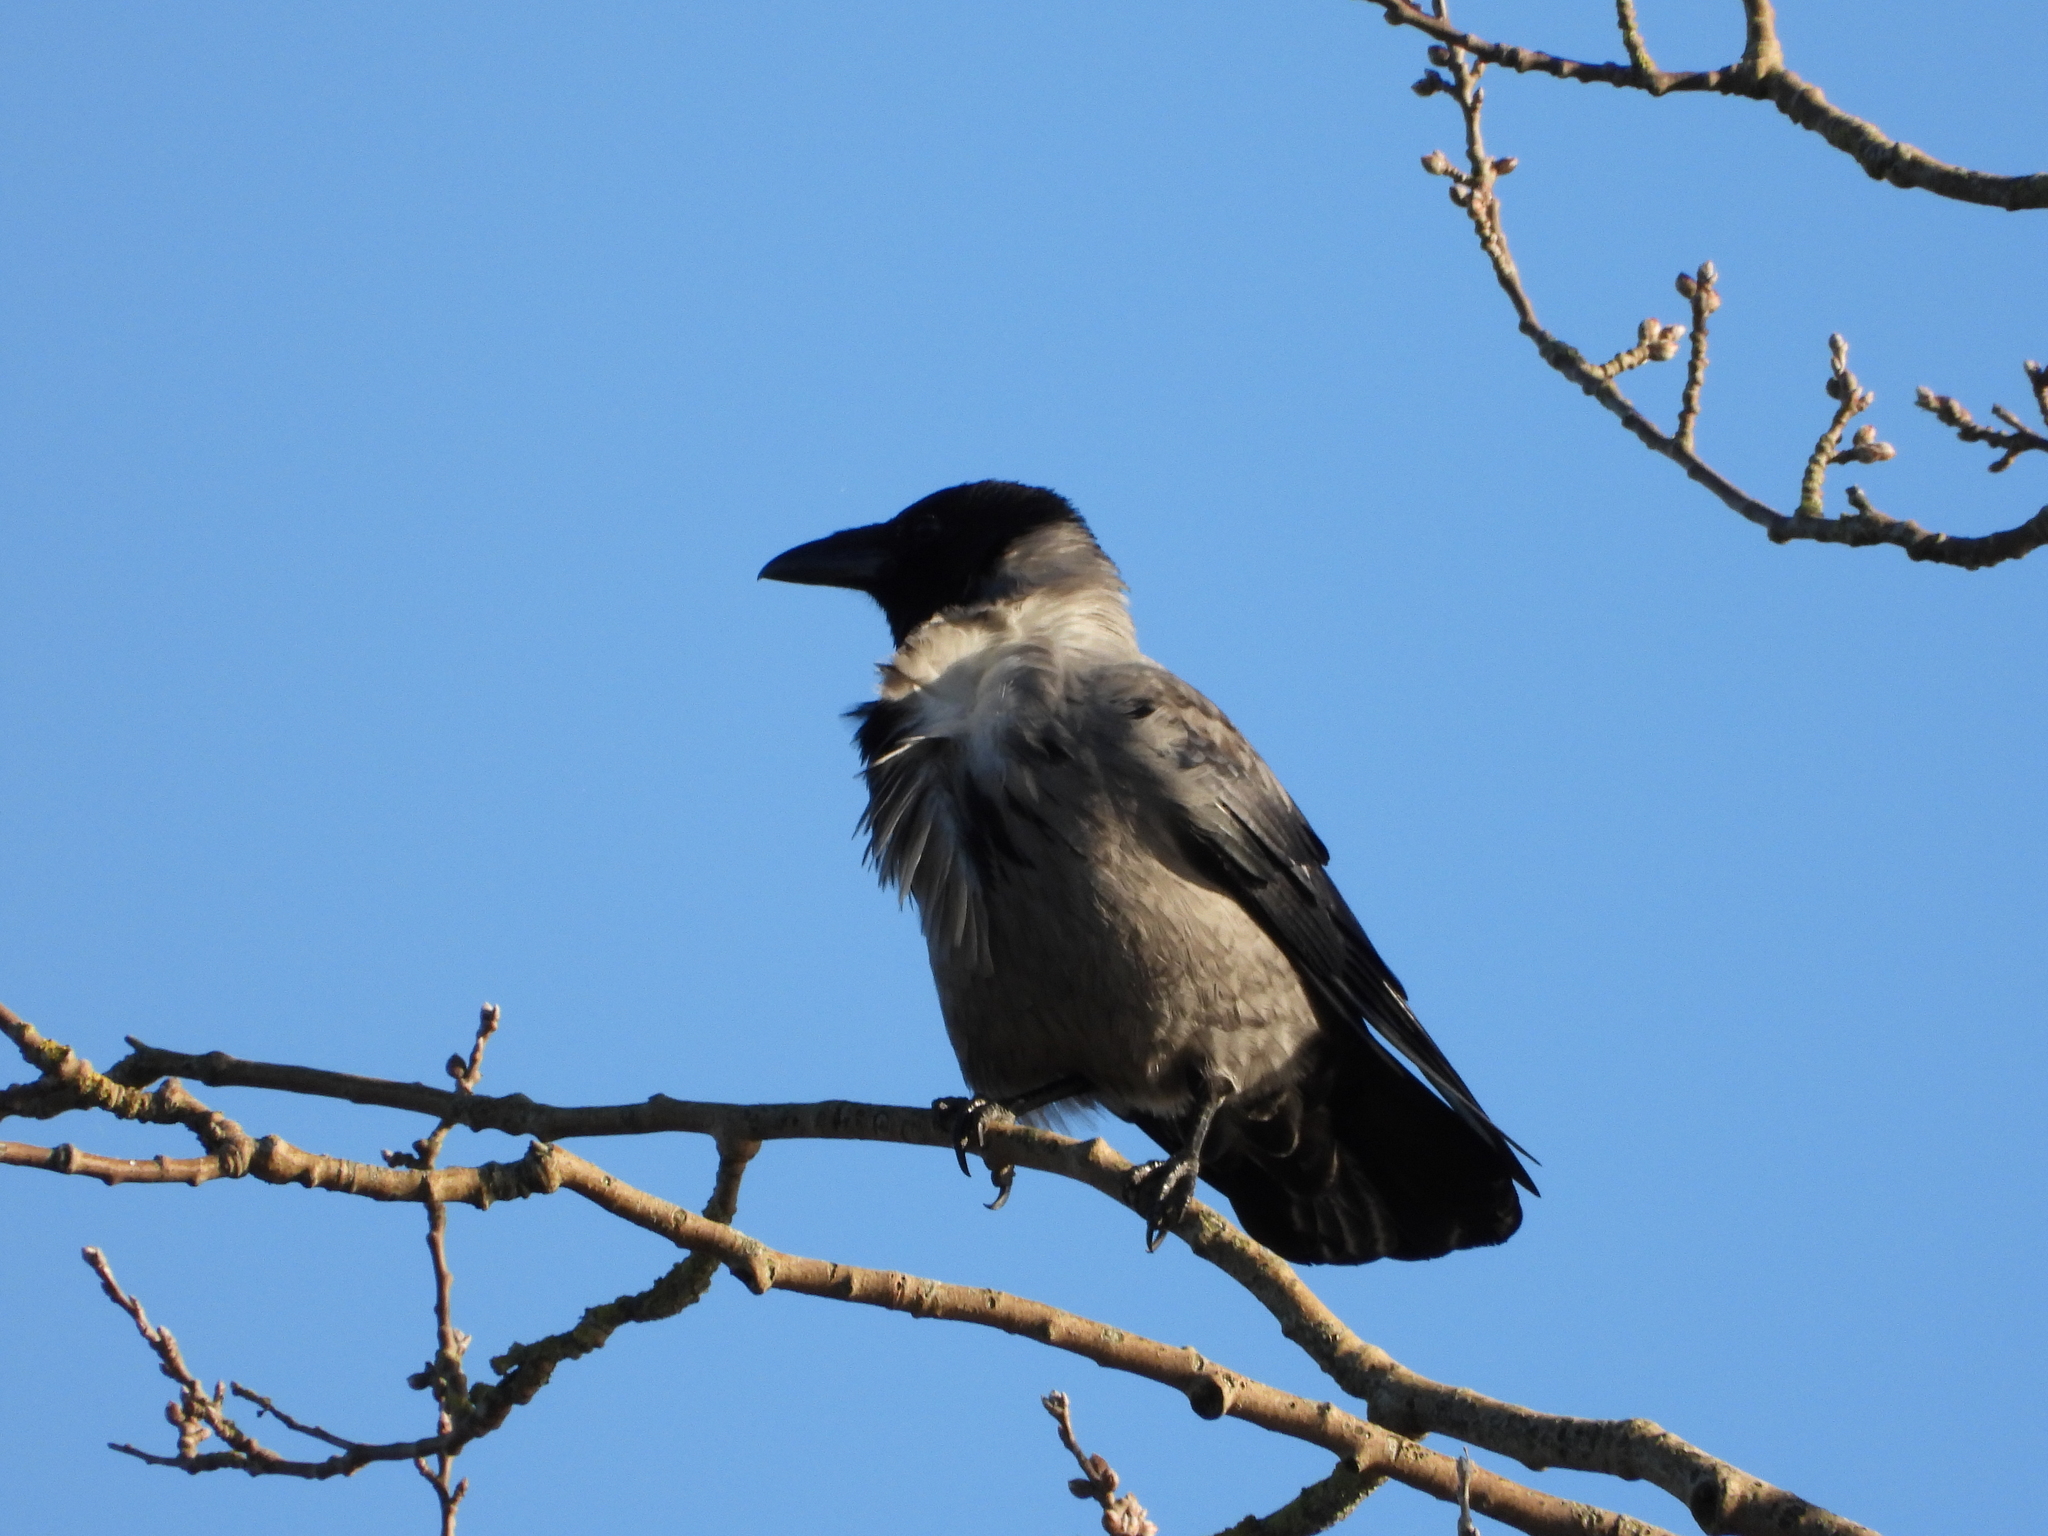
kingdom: Animalia
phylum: Chordata
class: Aves
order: Passeriformes
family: Corvidae
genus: Corvus
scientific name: Corvus cornix
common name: Hooded crow
